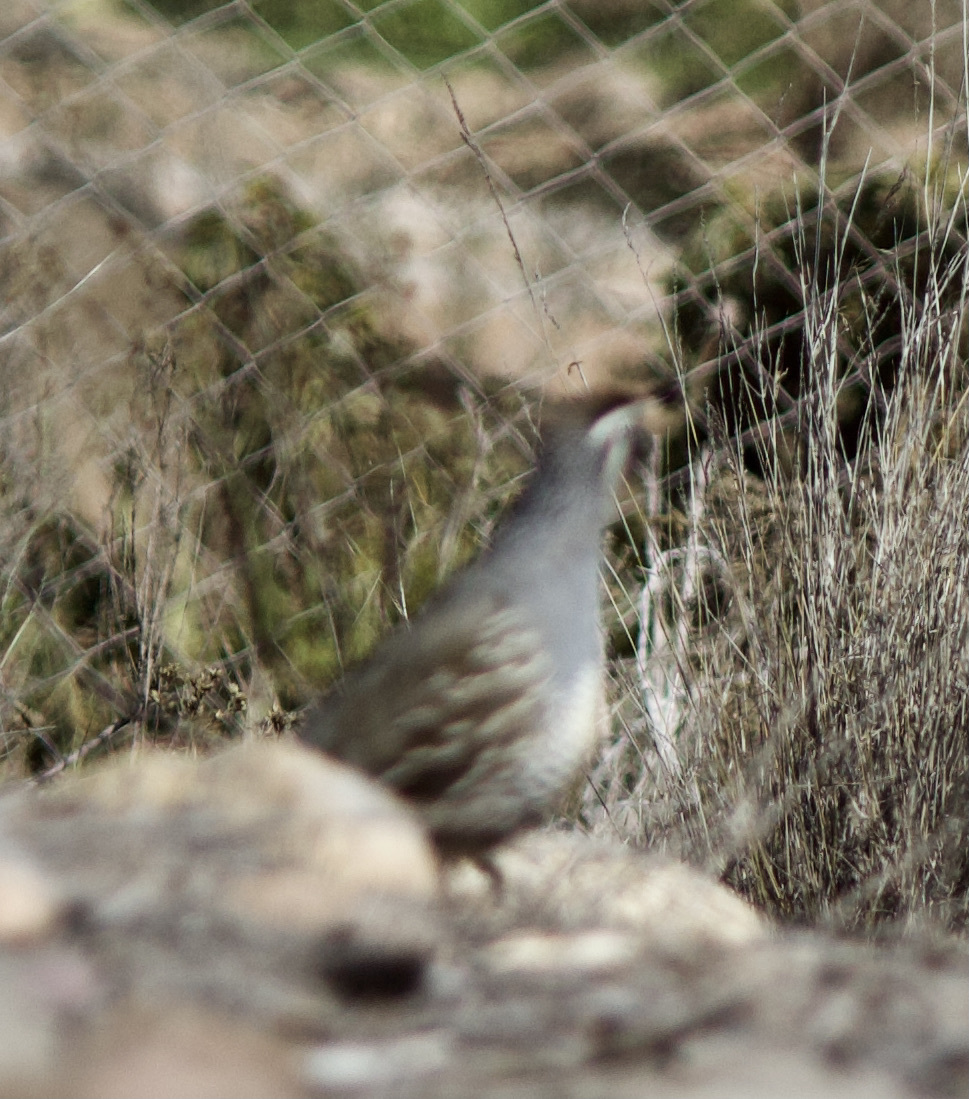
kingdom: Animalia
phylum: Chordata
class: Aves
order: Galliformes
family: Odontophoridae
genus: Callipepla
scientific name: Callipepla californica
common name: California quail
